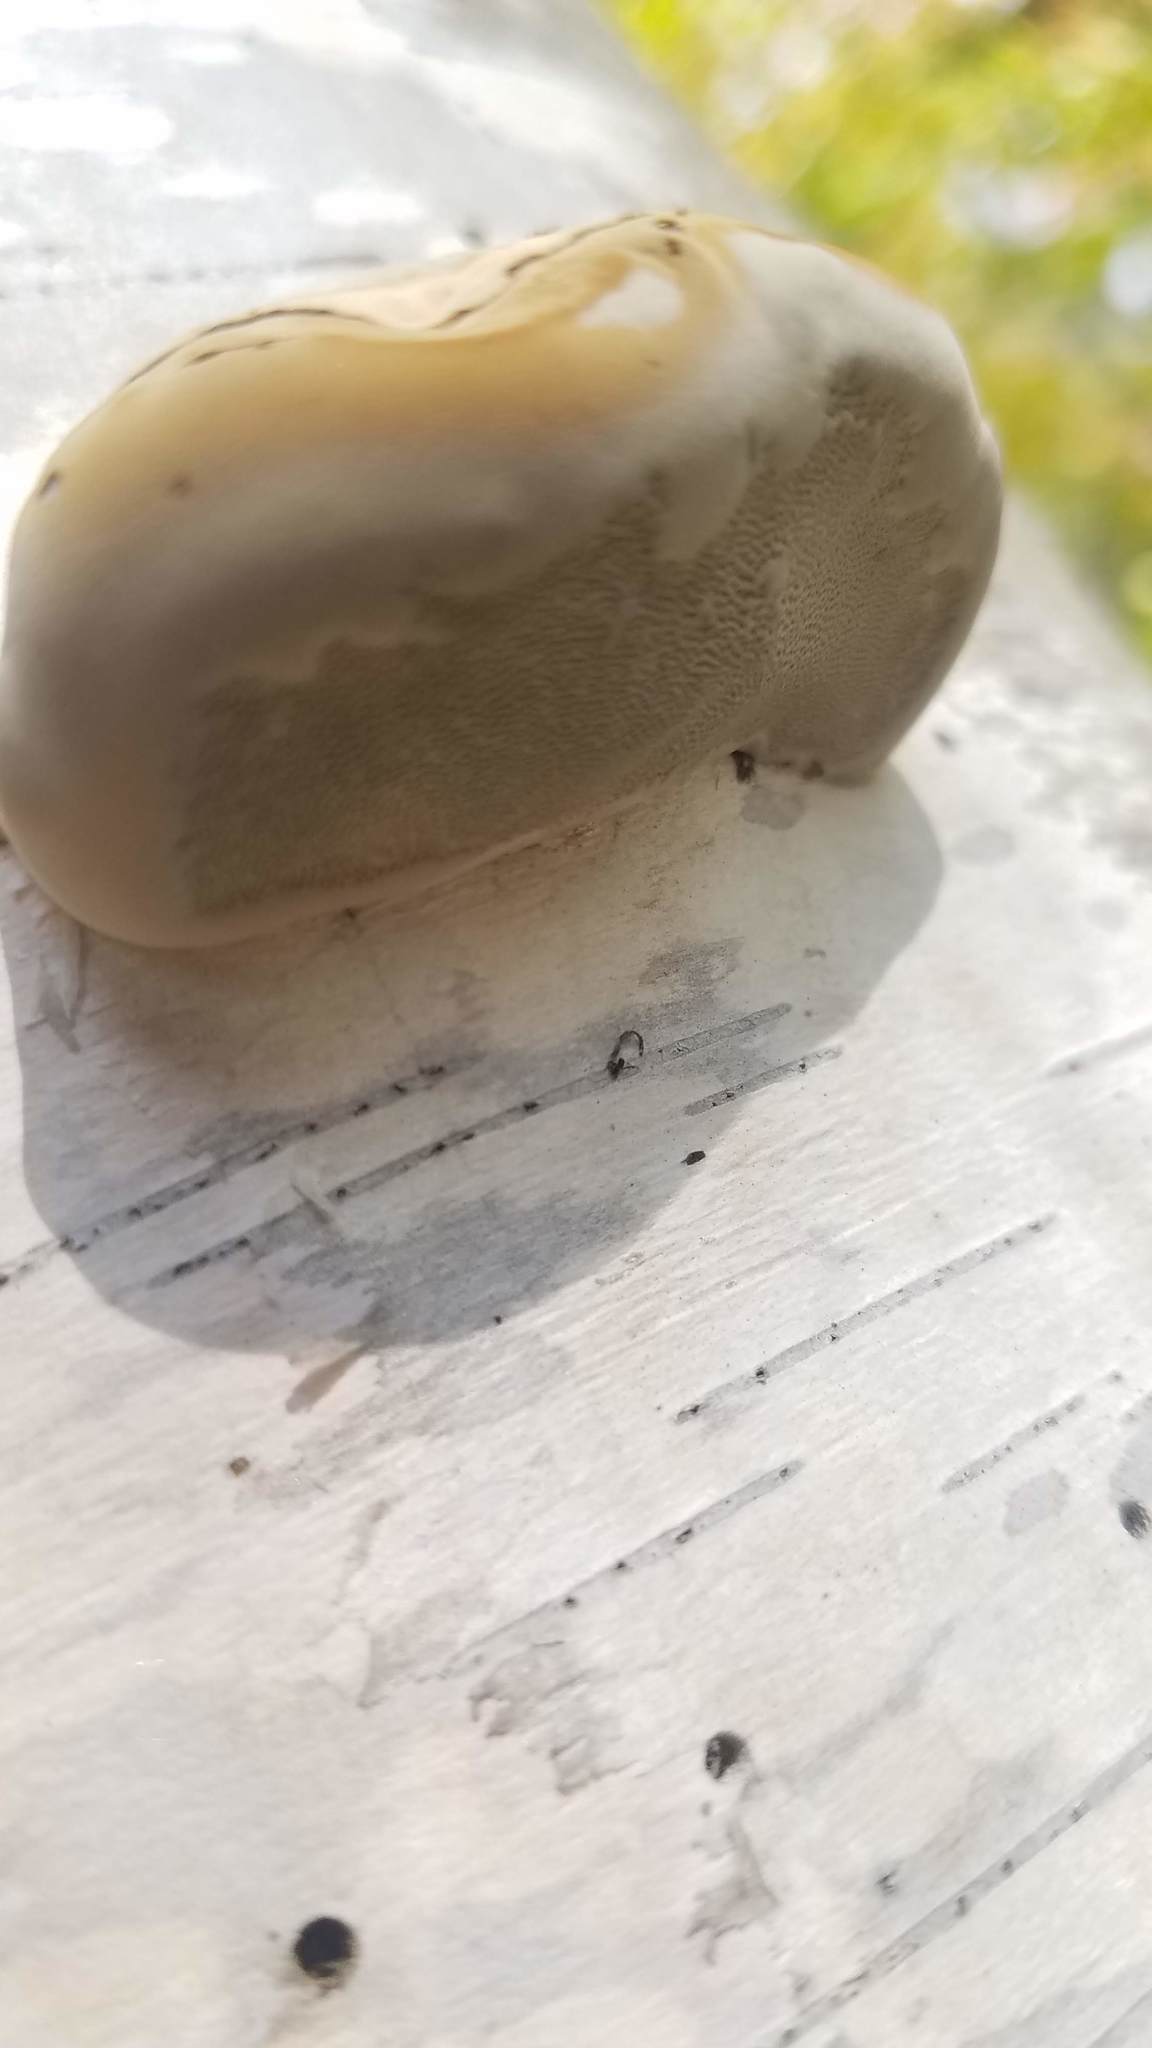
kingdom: Fungi
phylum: Basidiomycota
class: Agaricomycetes
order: Polyporales
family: Fomitopsidaceae
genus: Fomitopsis
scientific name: Fomitopsis betulina
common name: Birch polypore
